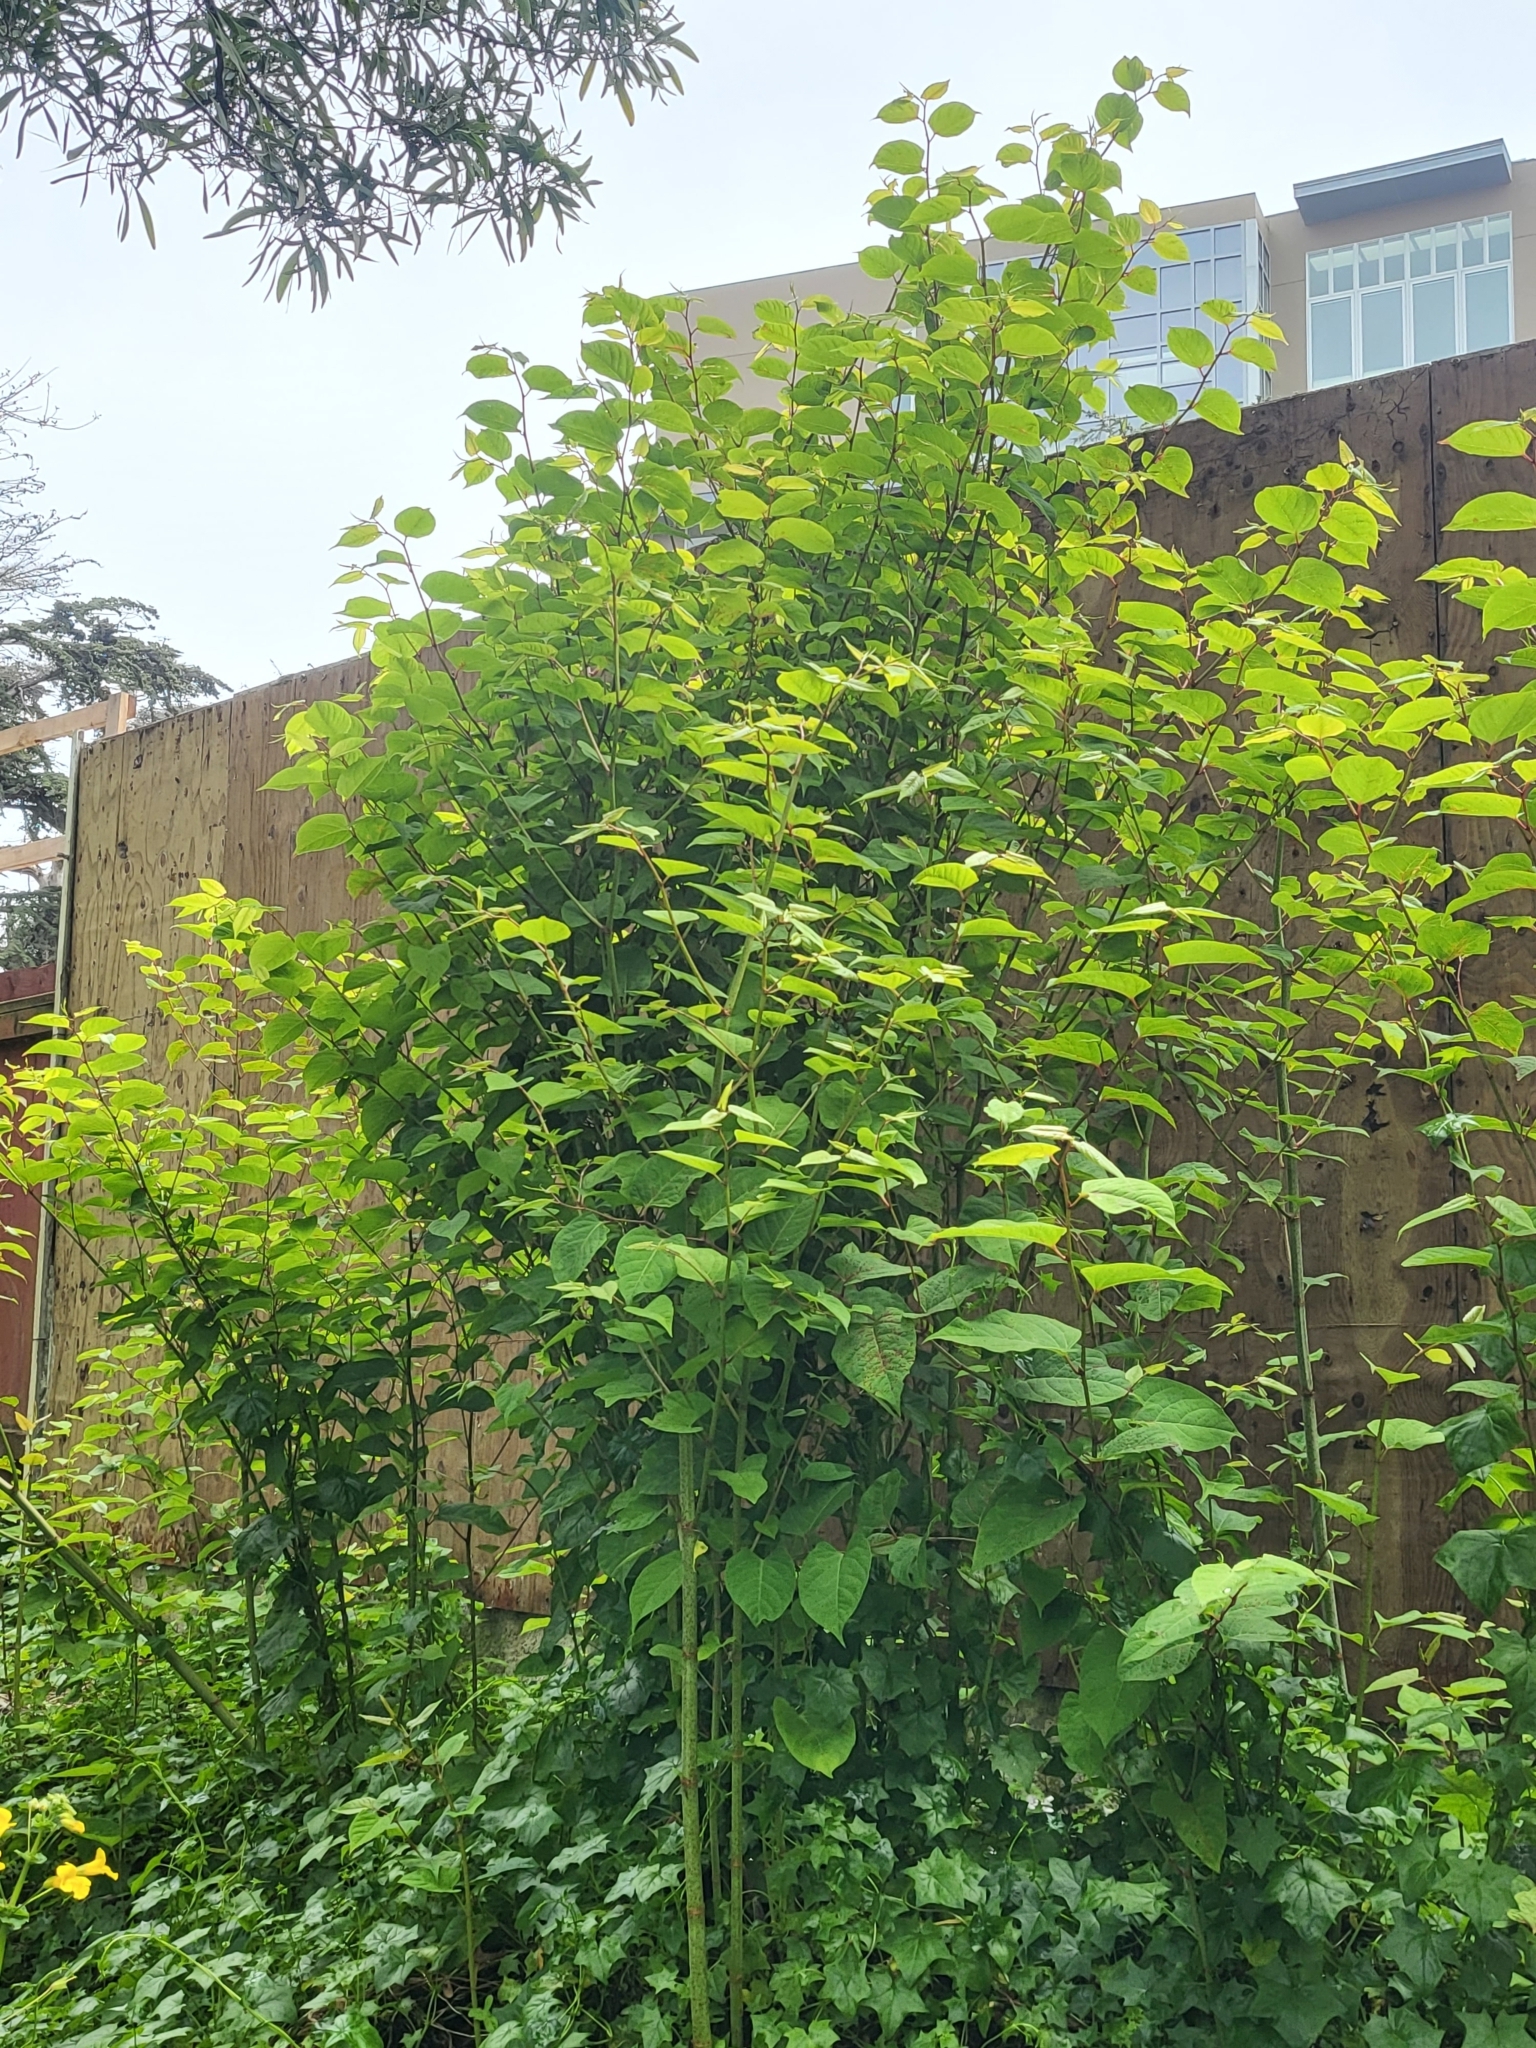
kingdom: Plantae
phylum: Tracheophyta
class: Magnoliopsida
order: Caryophyllales
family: Polygonaceae
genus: Reynoutria
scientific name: Reynoutria japonica
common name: Japanese knotweed
